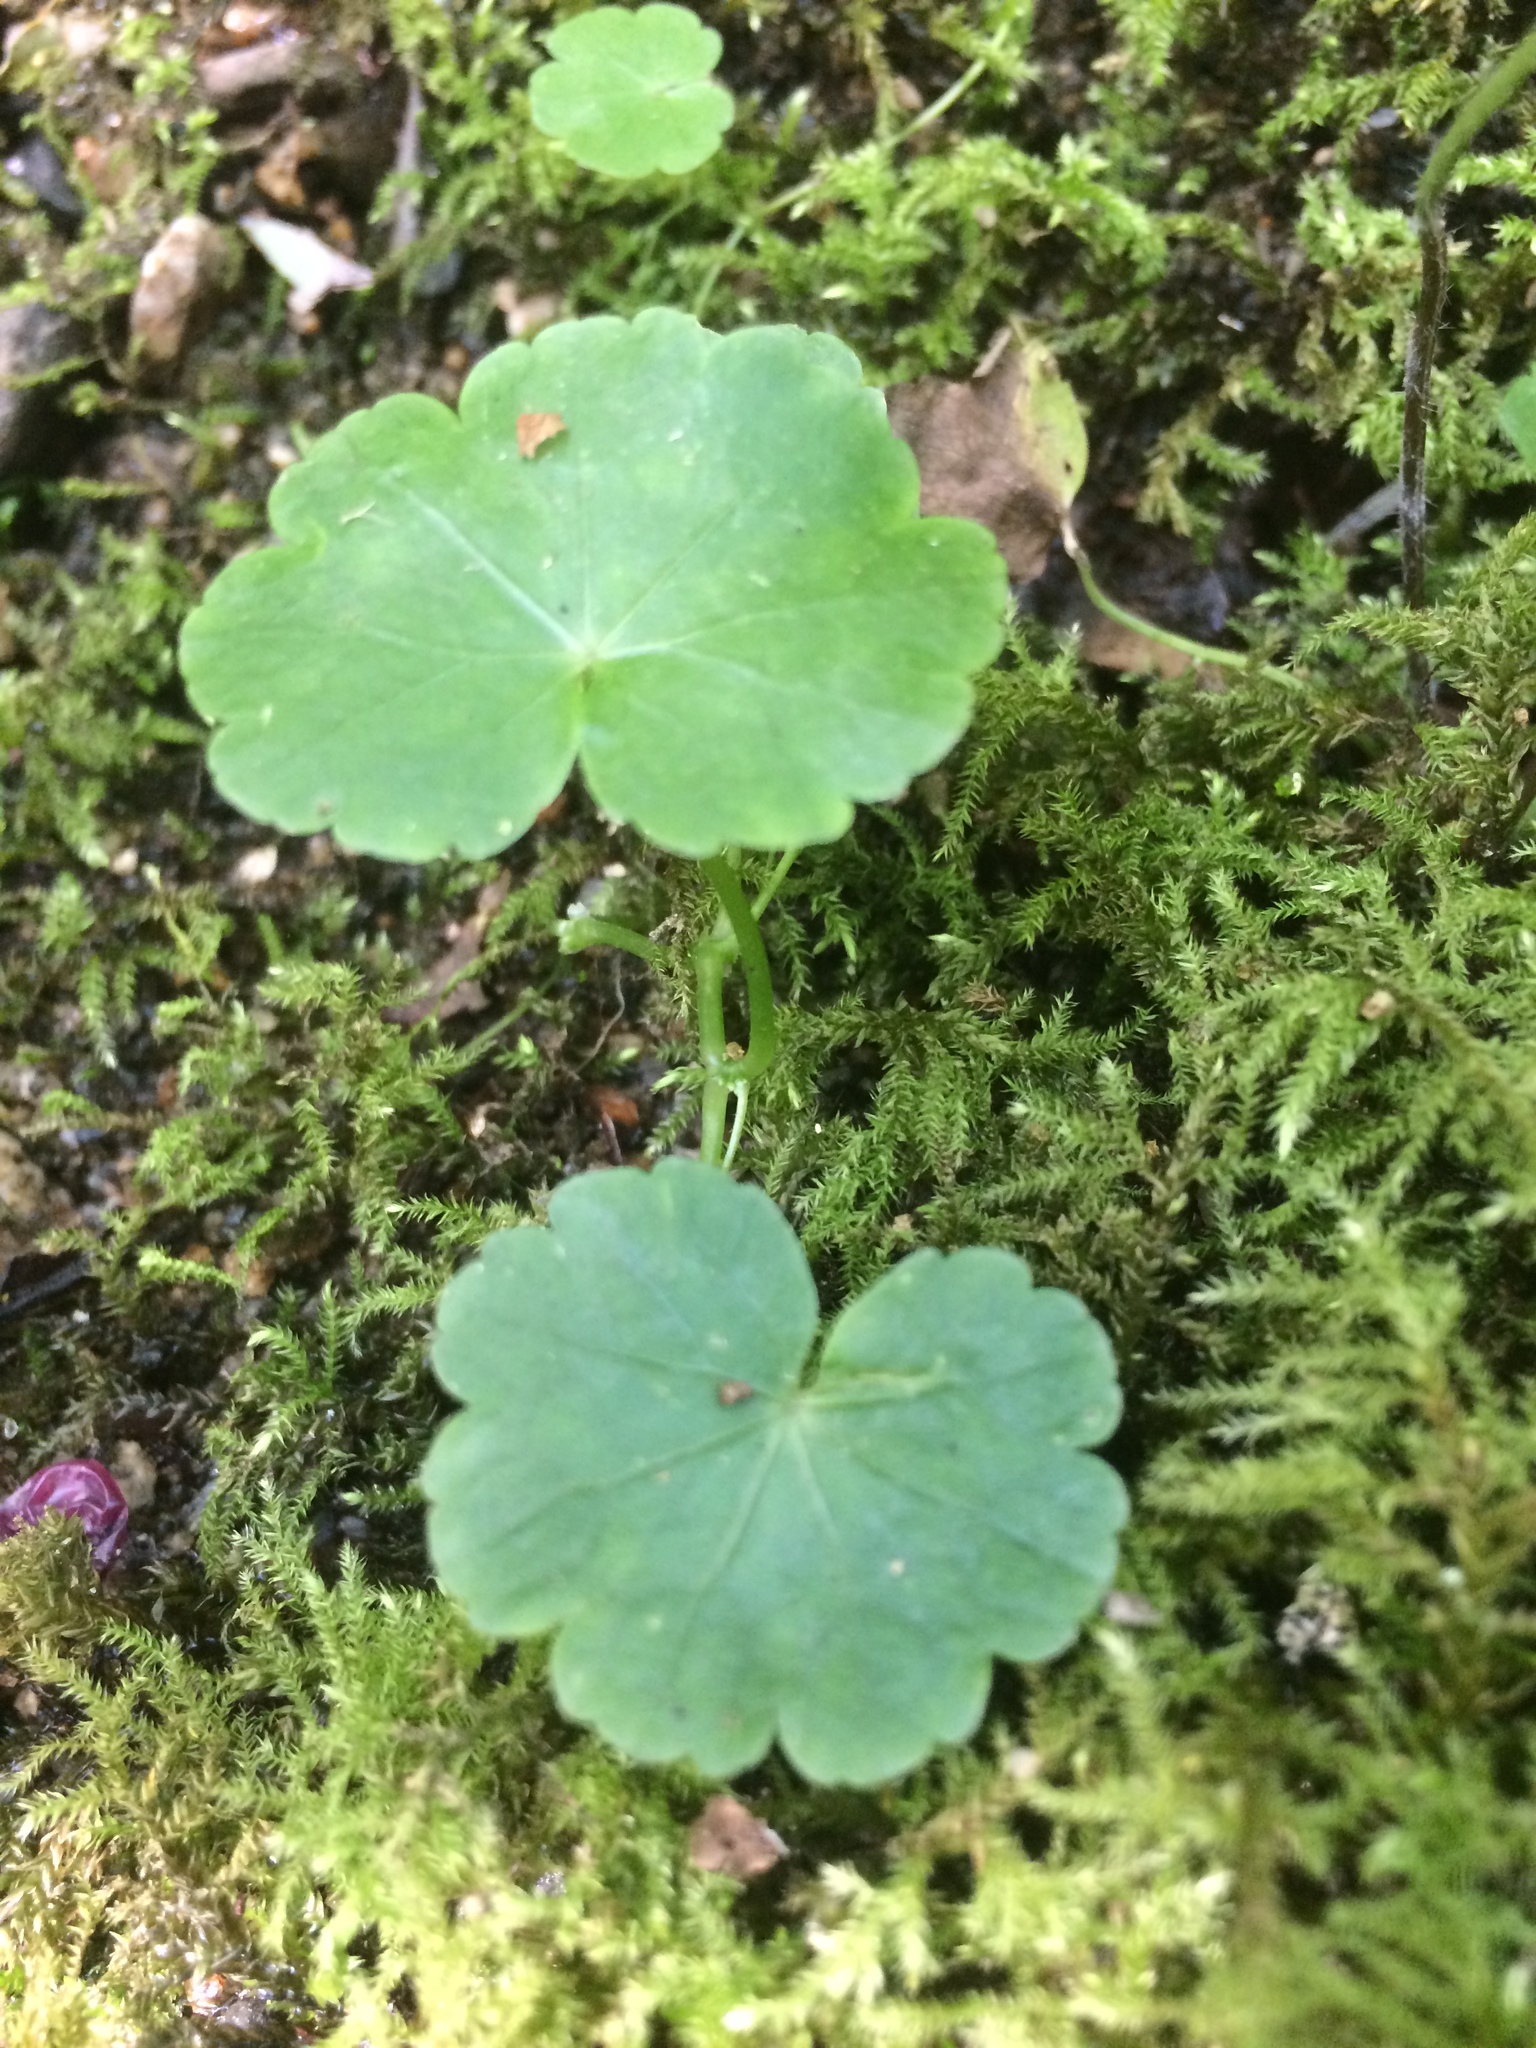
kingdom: Plantae
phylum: Tracheophyta
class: Magnoliopsida
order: Apiales
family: Araliaceae
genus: Hydrocotyle
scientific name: Hydrocotyle americana
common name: American water-pennywort
